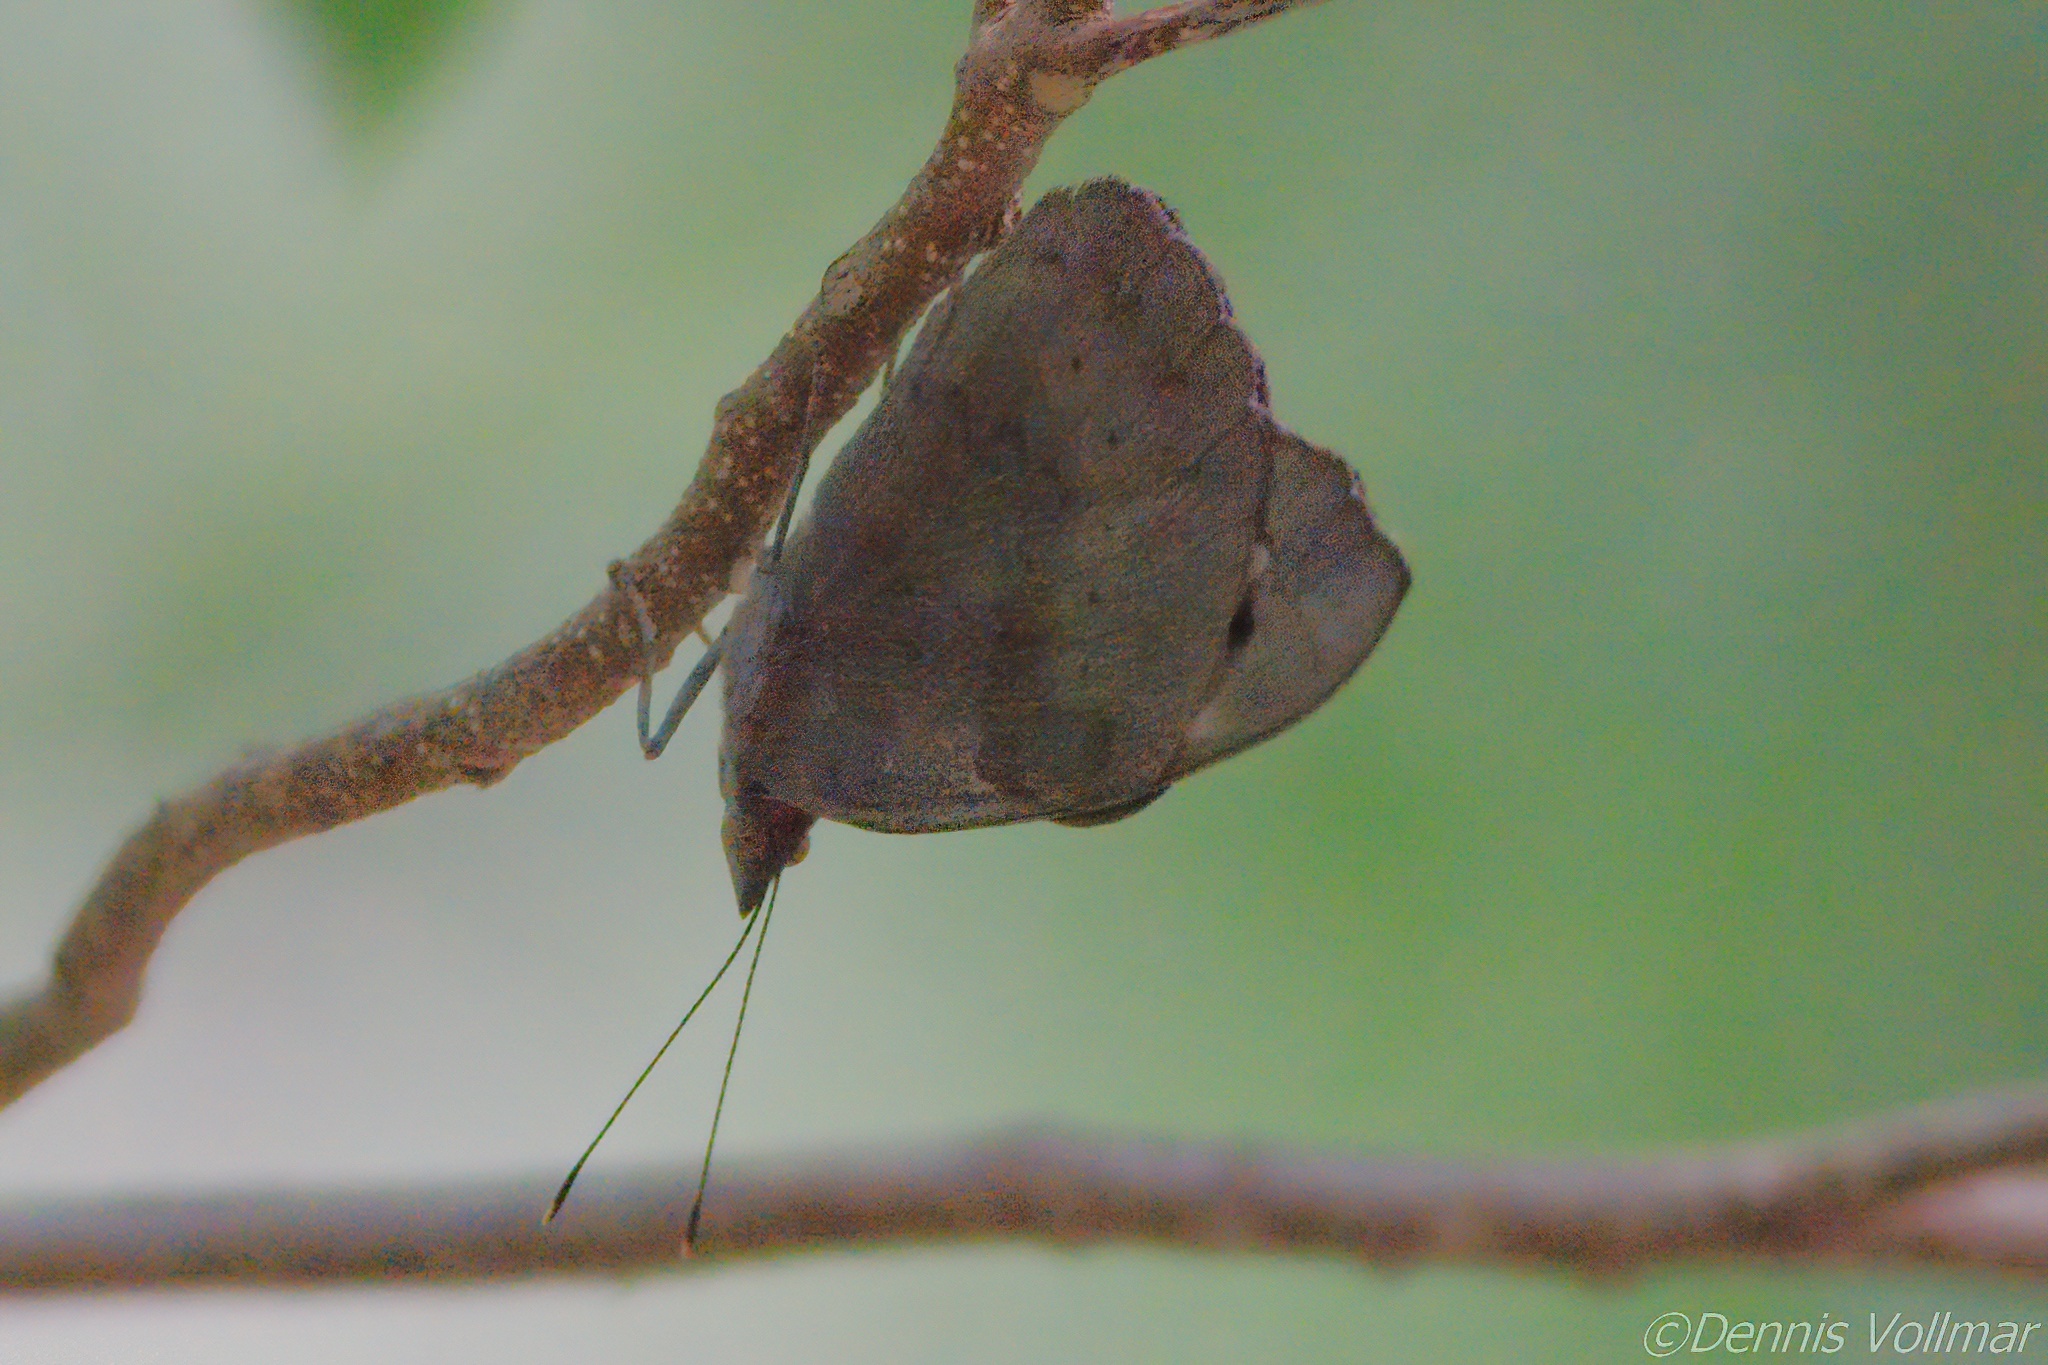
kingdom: Animalia
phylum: Arthropoda
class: Insecta
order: Lepidoptera
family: Nymphalidae
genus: Eunica
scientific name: Eunica tatila
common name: Florida purplewing
